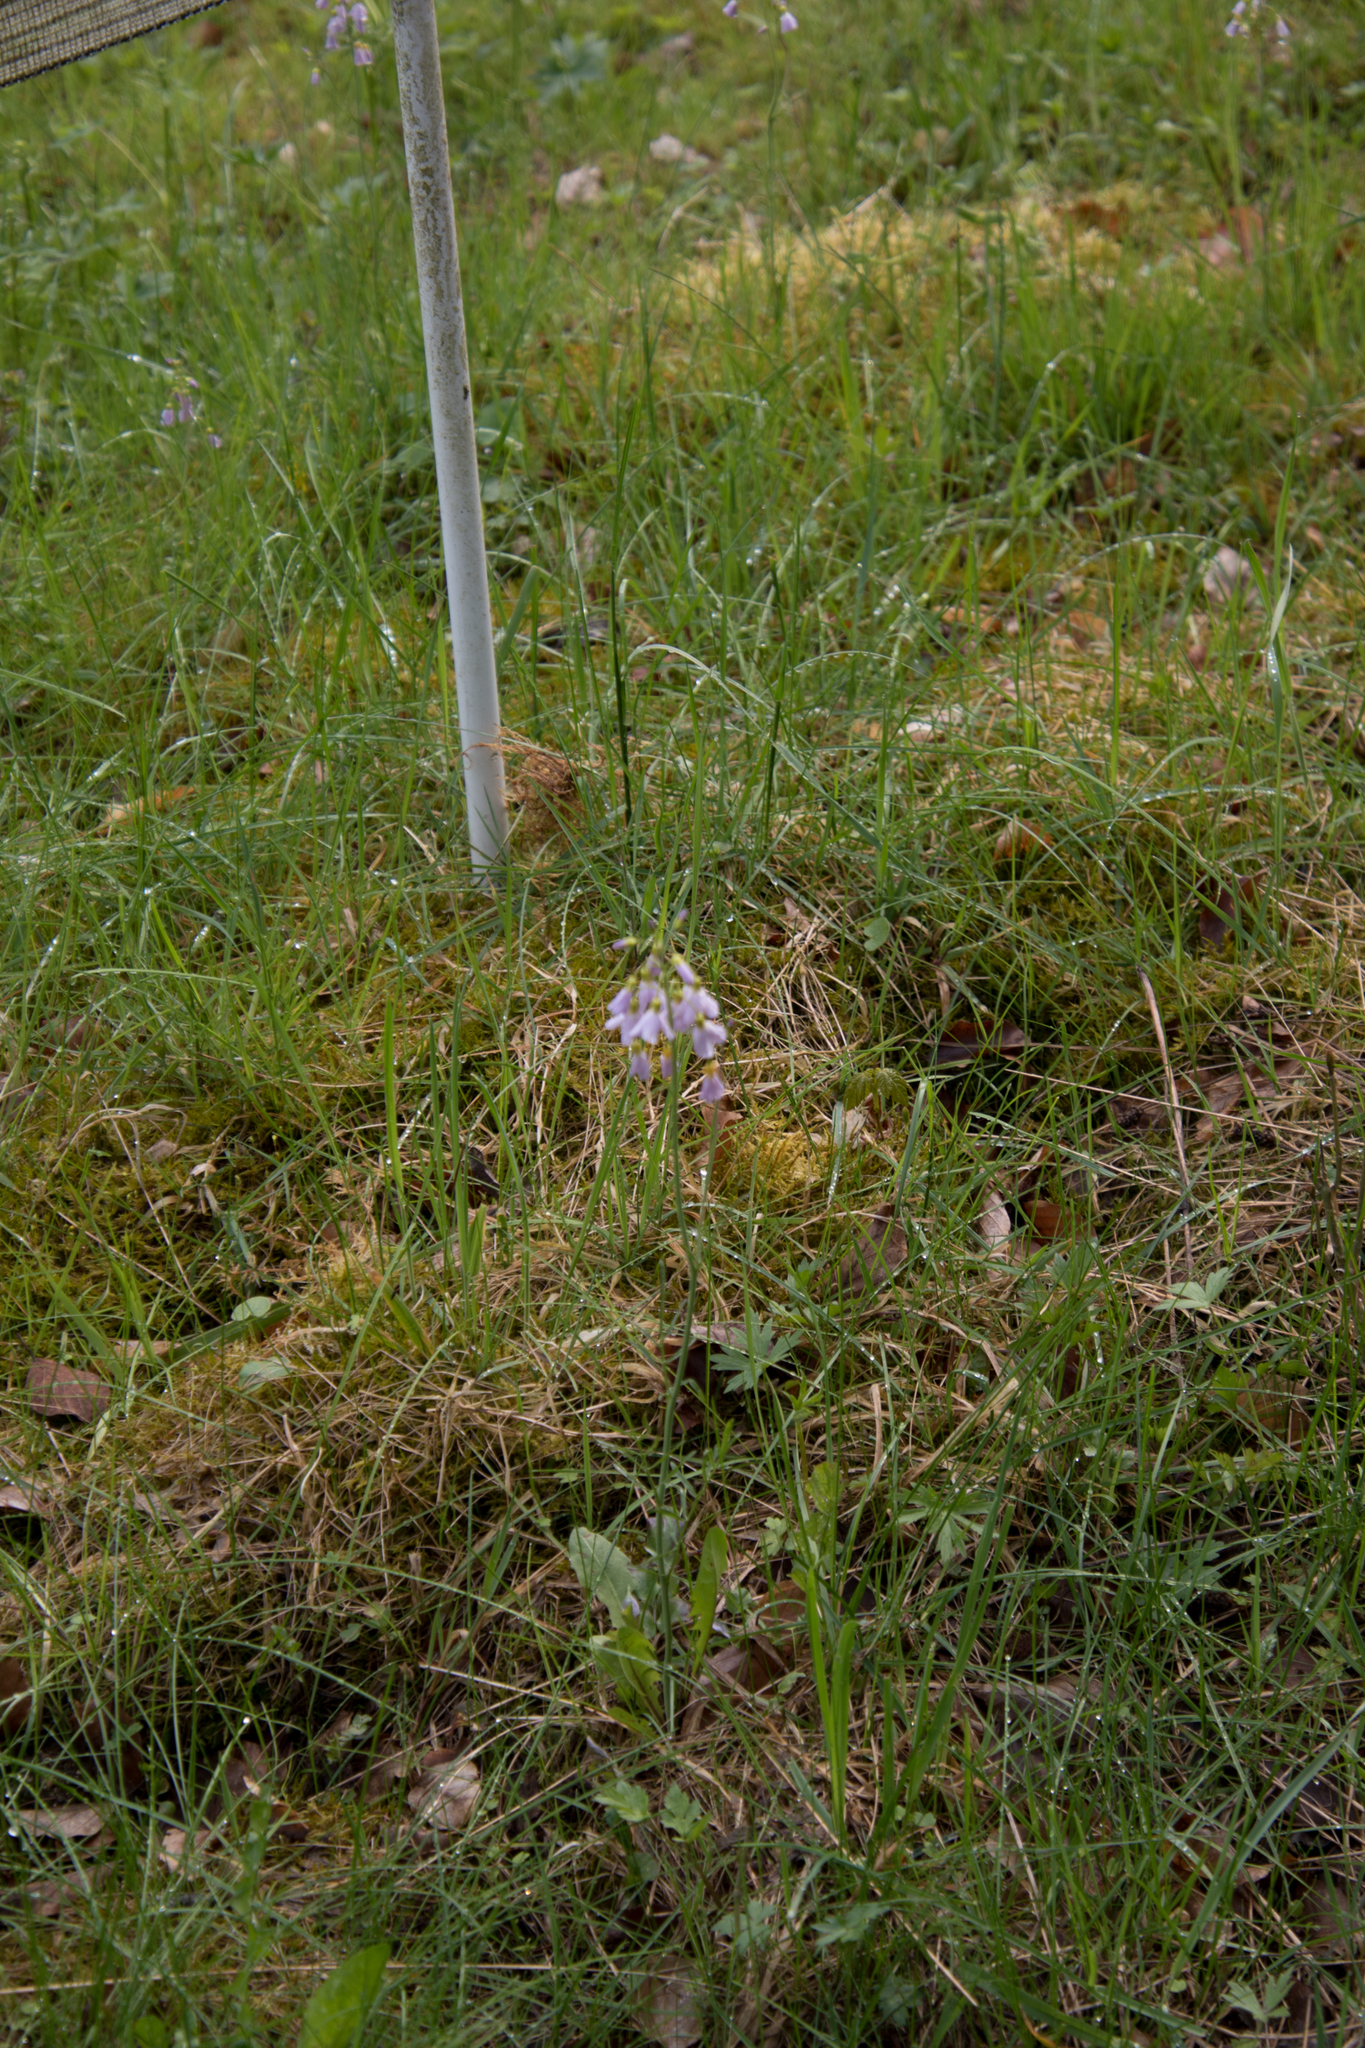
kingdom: Plantae
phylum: Tracheophyta
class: Magnoliopsida
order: Brassicales
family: Brassicaceae
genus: Cardamine
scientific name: Cardamine pratensis
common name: Cuckoo flower
